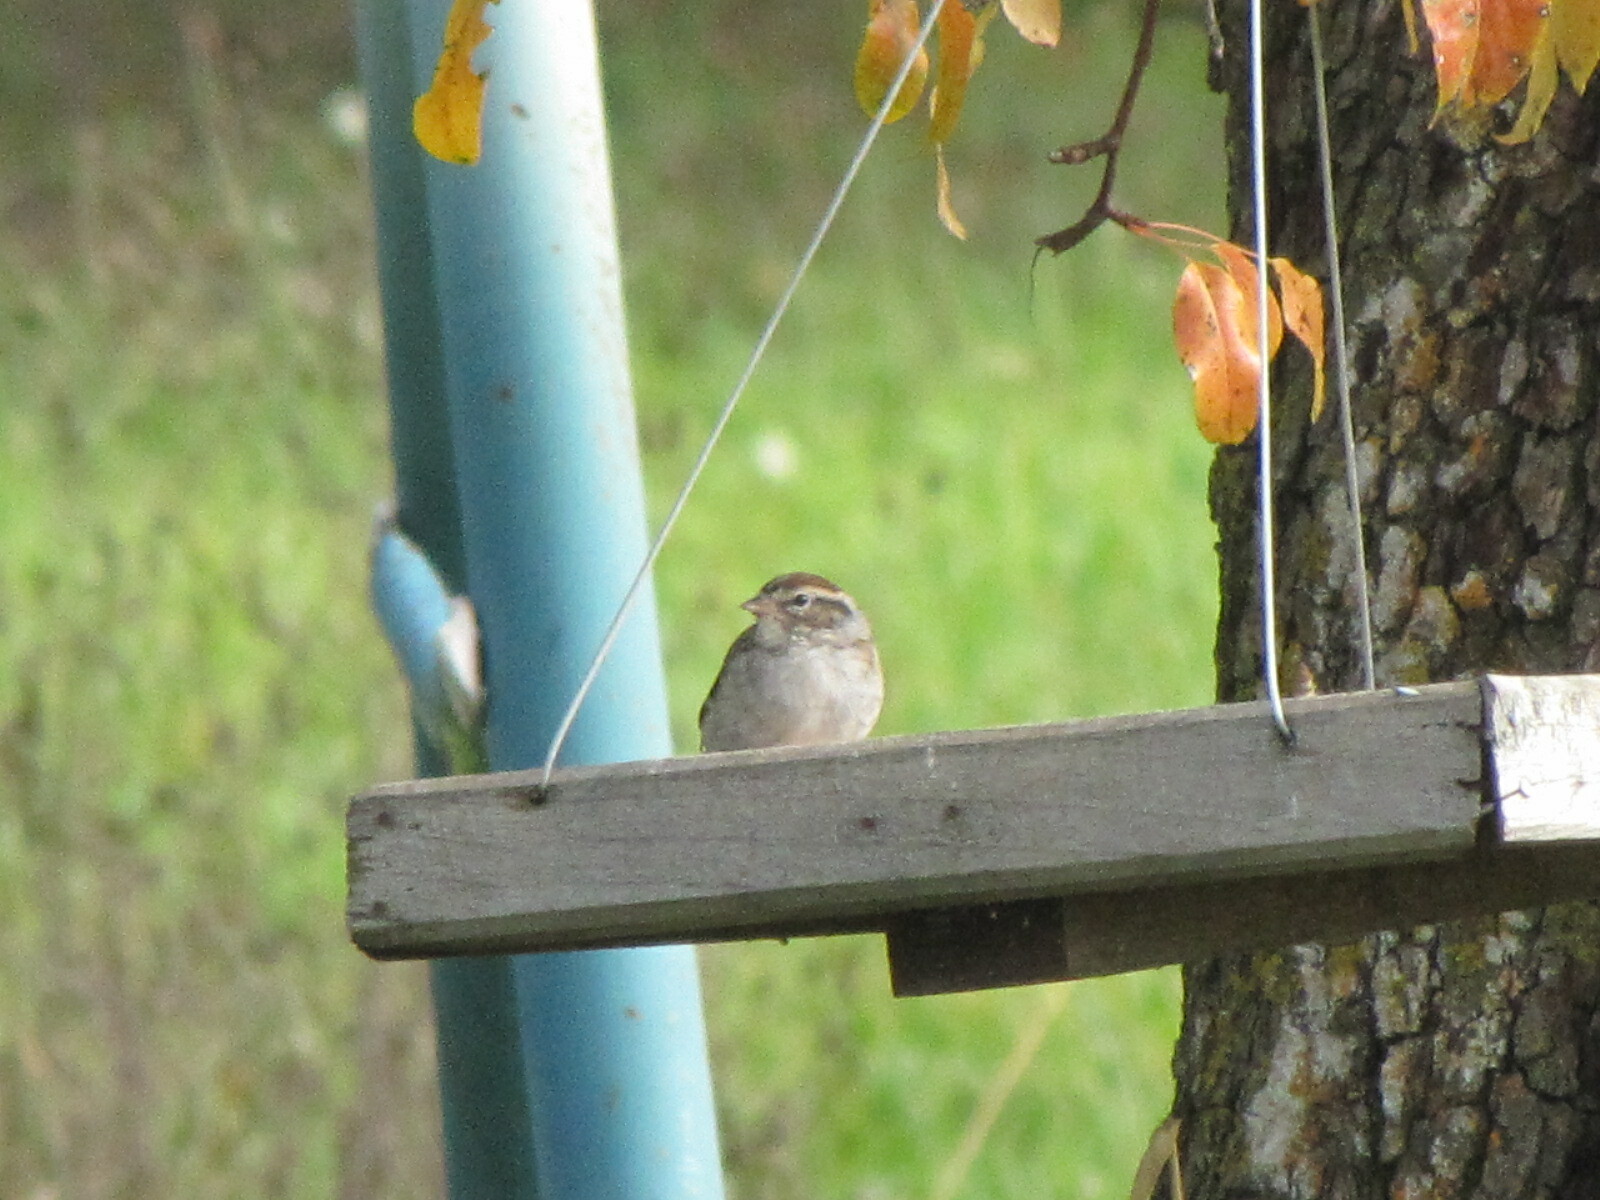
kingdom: Animalia
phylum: Chordata
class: Aves
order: Passeriformes
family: Passerellidae
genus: Spizella
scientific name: Spizella passerina
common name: Chipping sparrow
